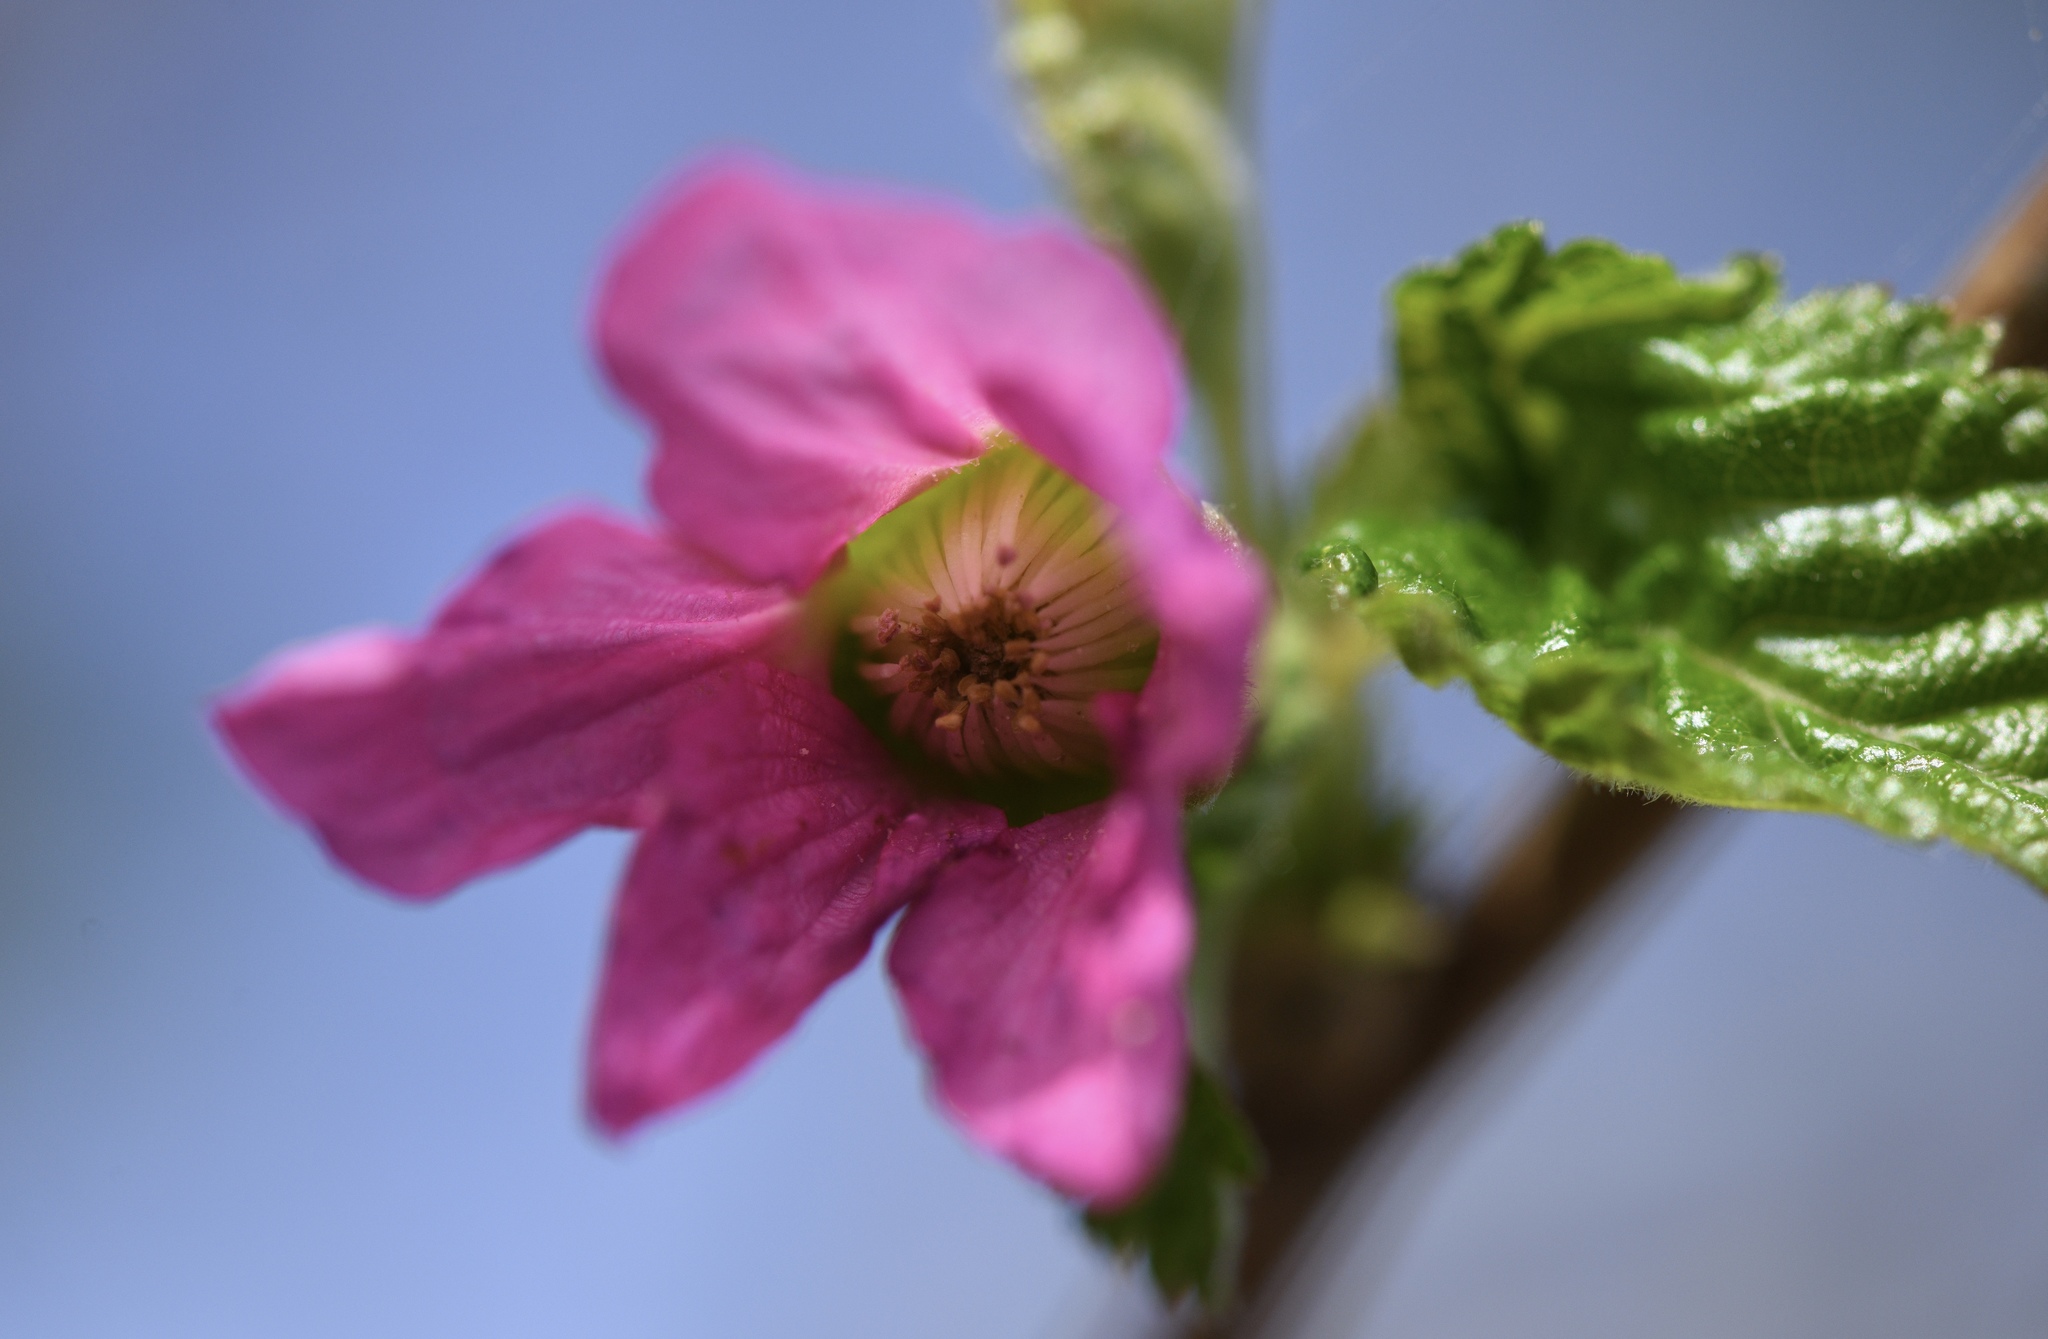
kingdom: Plantae
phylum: Tracheophyta
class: Magnoliopsida
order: Rosales
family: Rosaceae
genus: Rubus
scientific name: Rubus spectabilis
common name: Salmonberry
